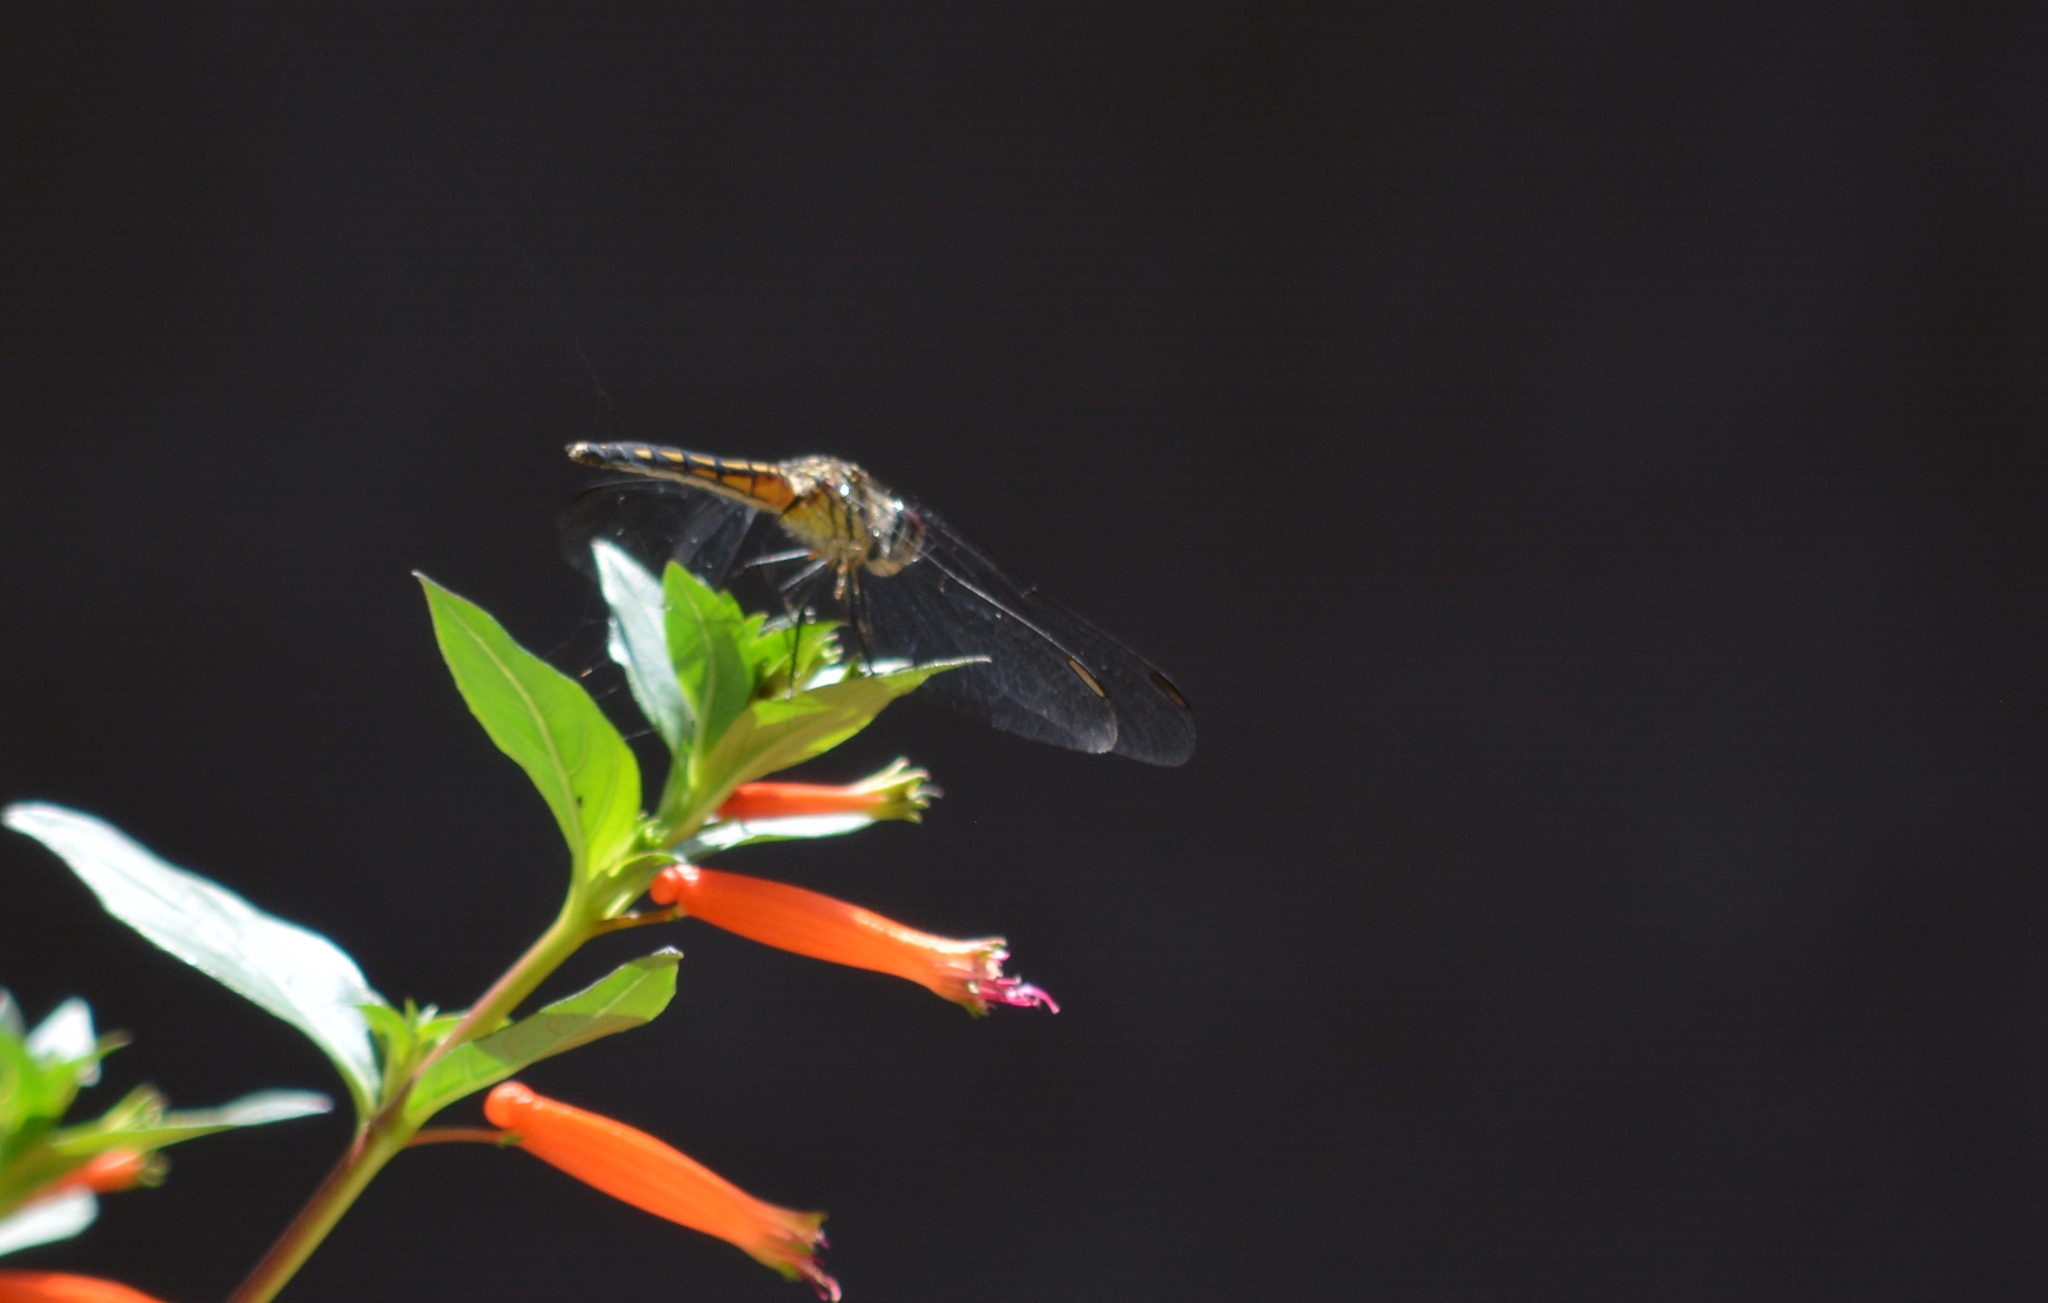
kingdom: Animalia
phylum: Arthropoda
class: Insecta
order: Odonata
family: Libellulidae
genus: Pachydiplax
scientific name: Pachydiplax longipennis
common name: Blue dasher
